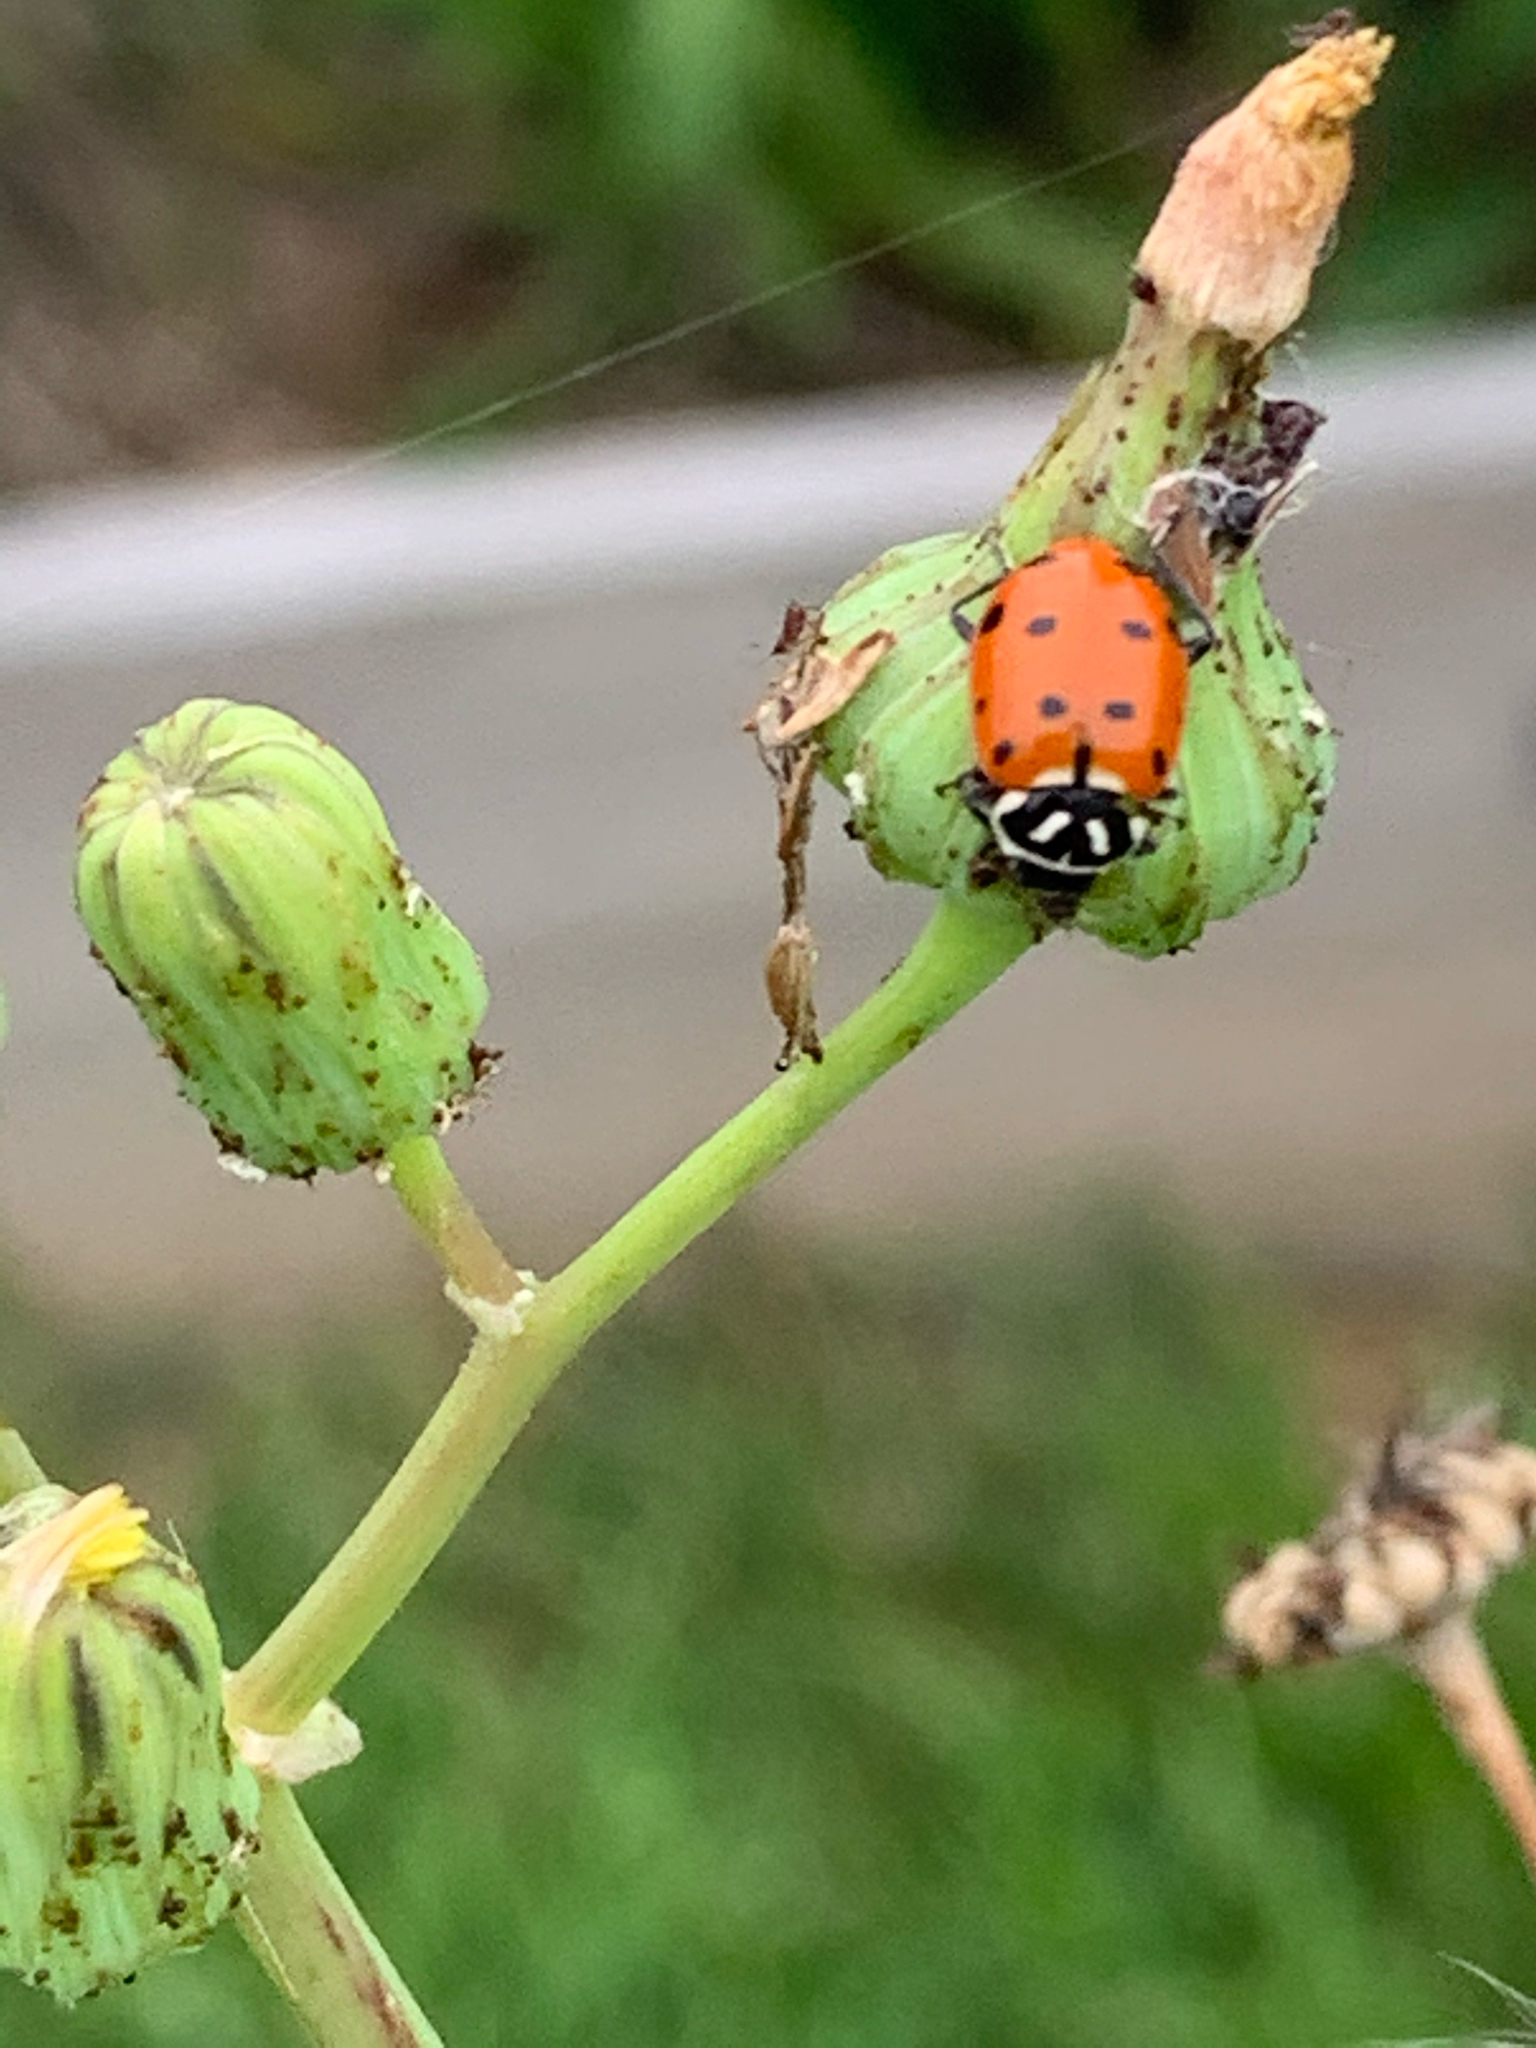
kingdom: Animalia
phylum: Arthropoda
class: Insecta
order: Coleoptera
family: Coccinellidae
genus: Hippodamia
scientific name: Hippodamia convergens
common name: Convergent lady beetle
